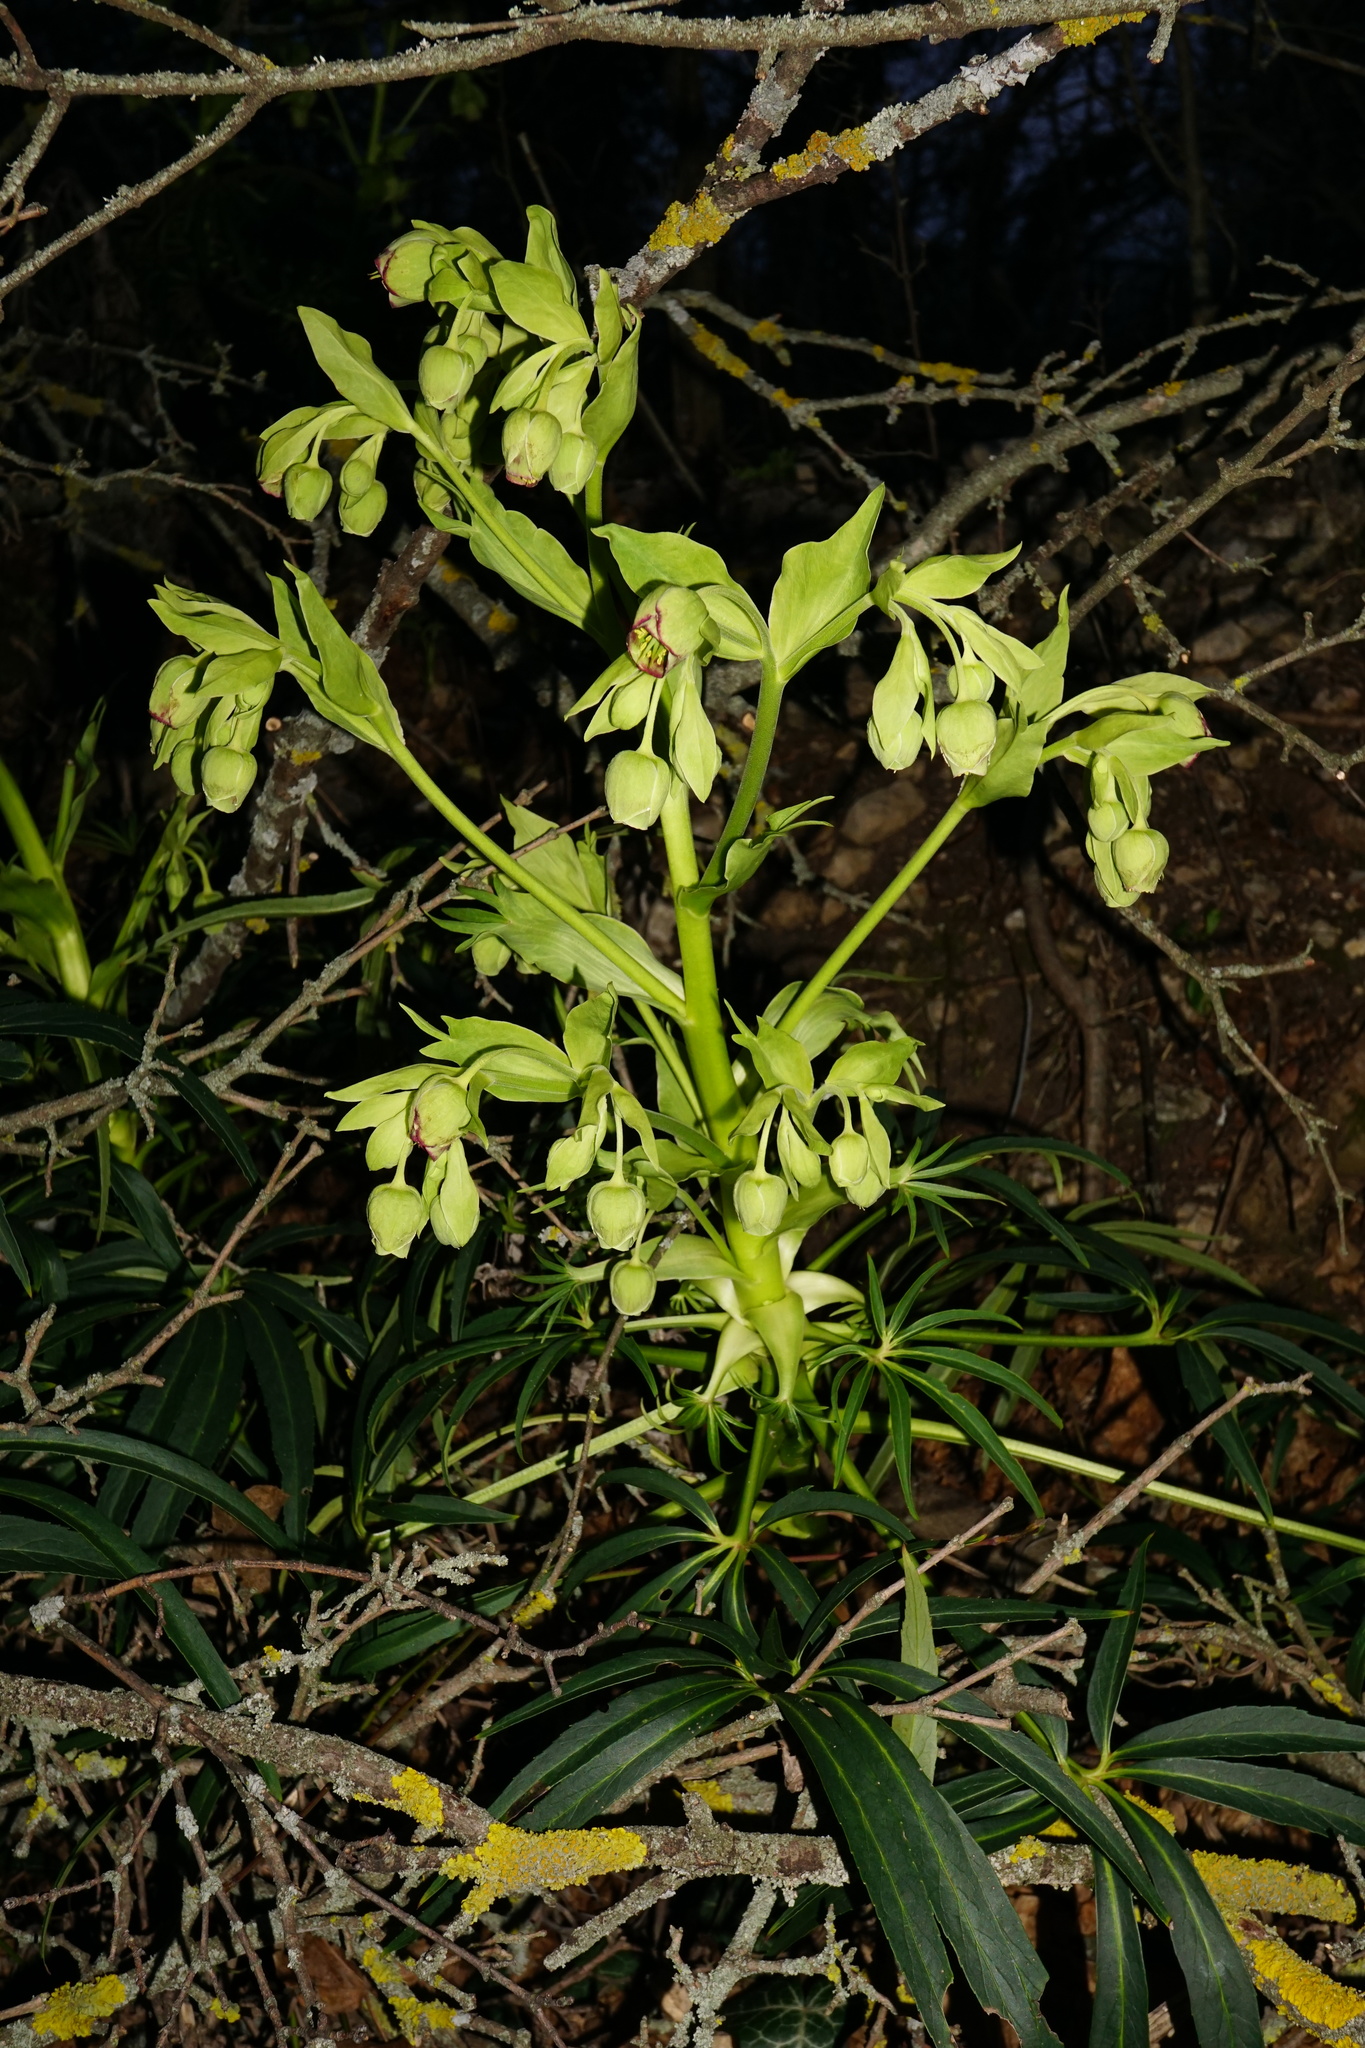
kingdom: Plantae
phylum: Tracheophyta
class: Magnoliopsida
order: Ranunculales
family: Ranunculaceae
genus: Helleborus
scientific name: Helleborus foetidus
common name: Stinking hellebore
